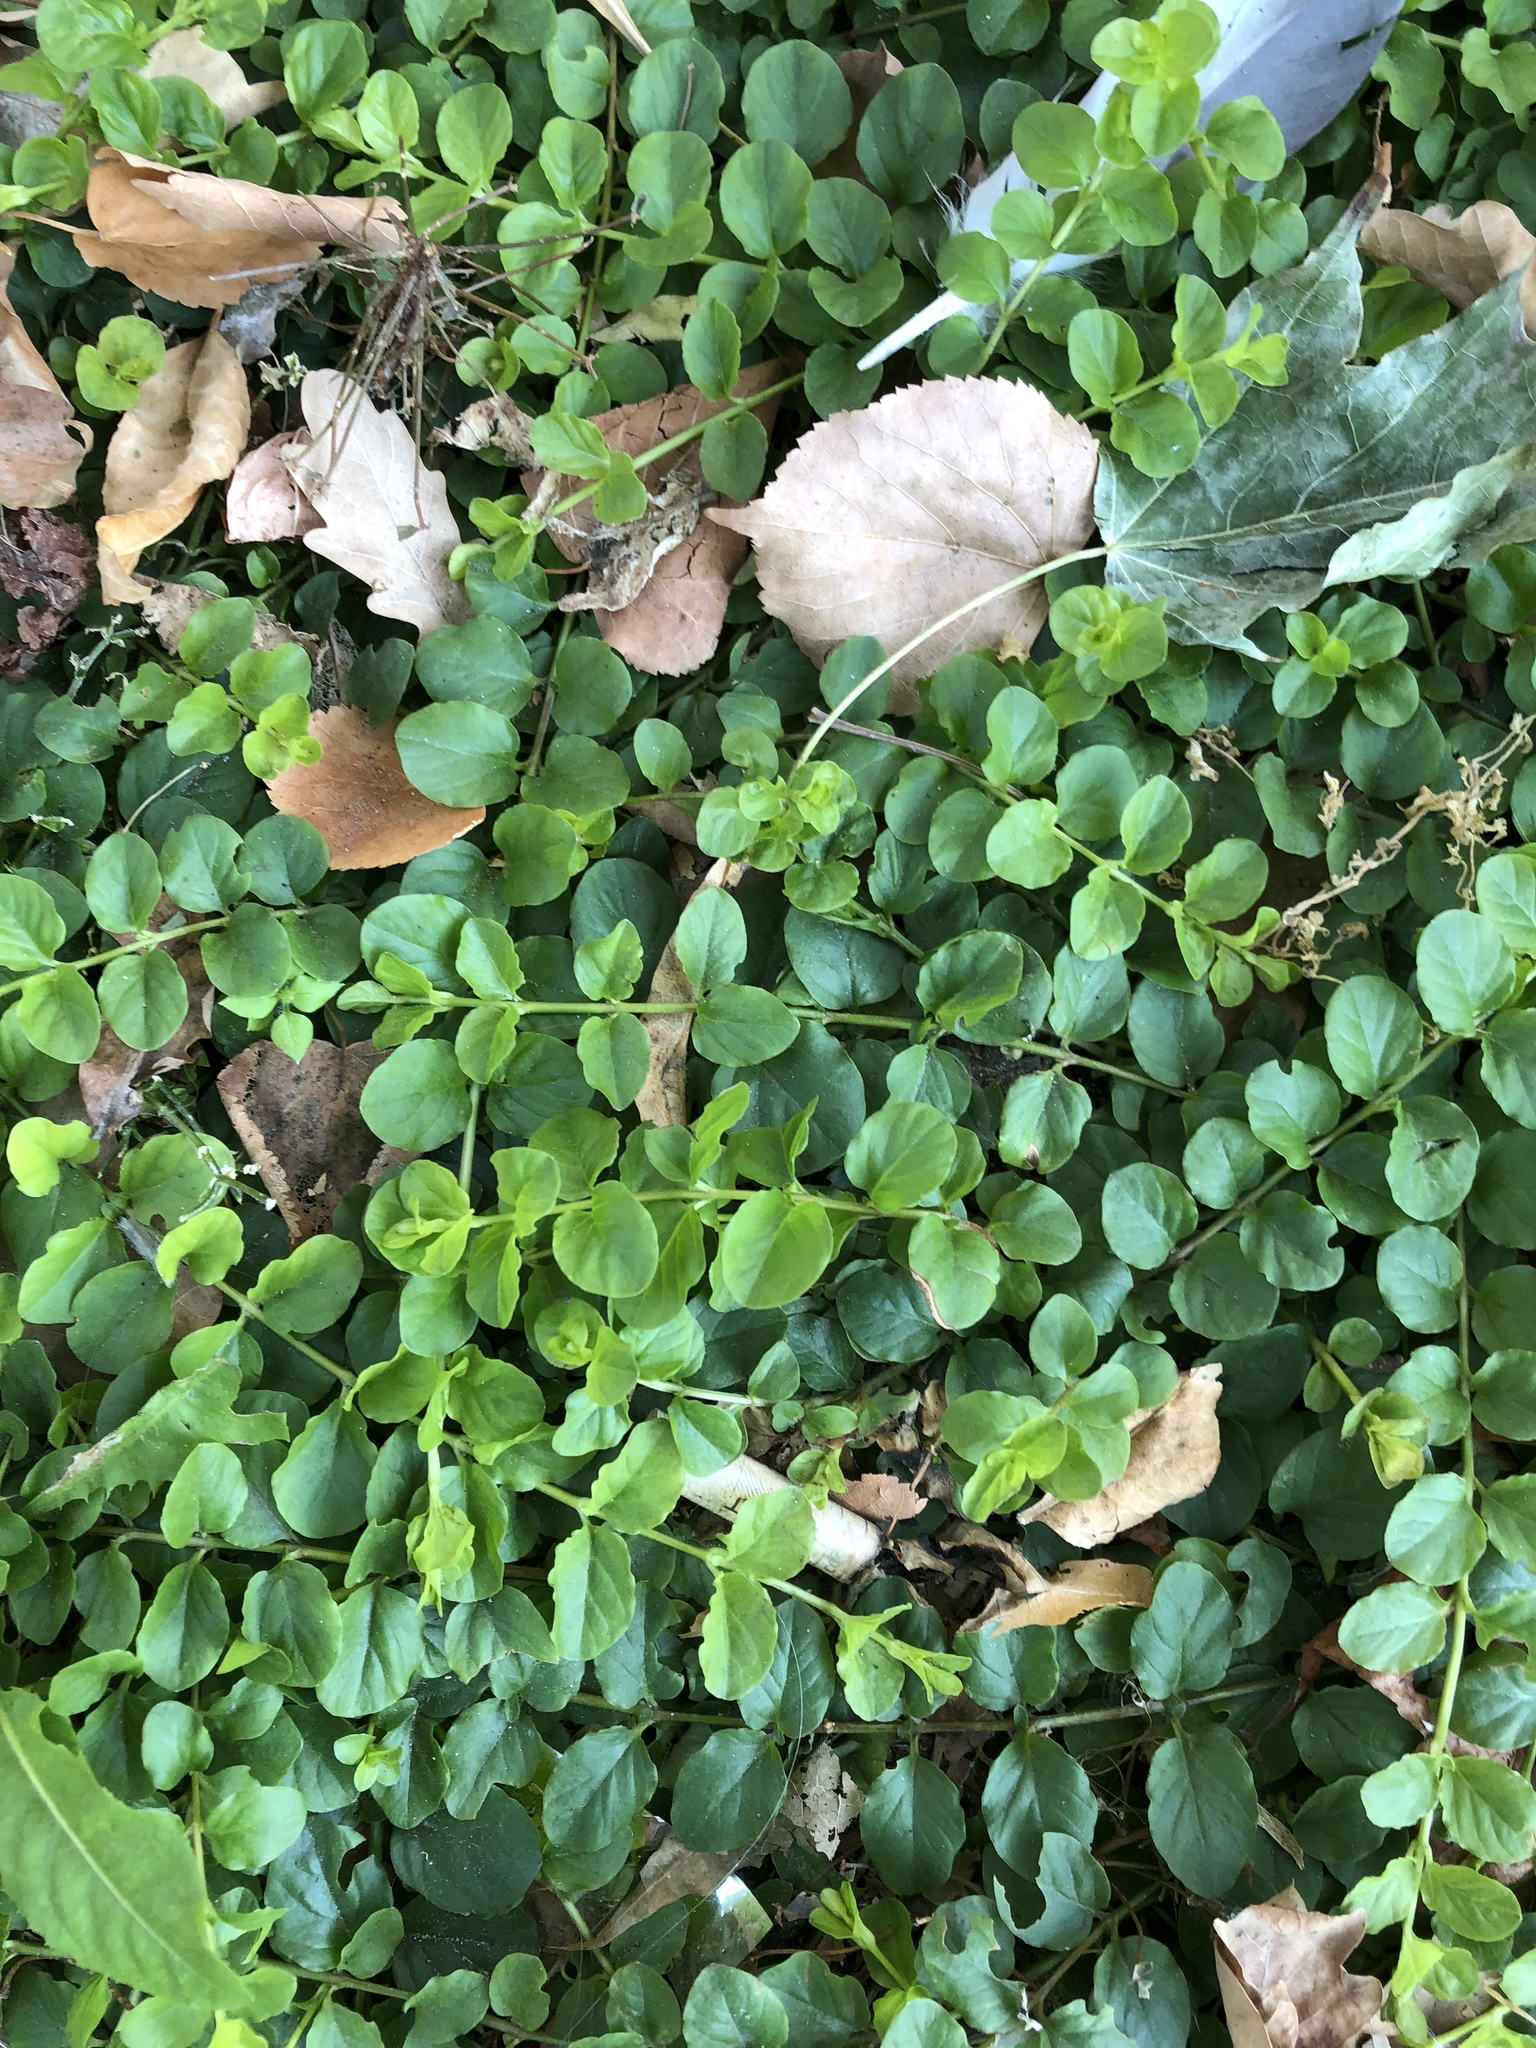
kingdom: Plantae
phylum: Tracheophyta
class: Magnoliopsida
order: Ericales
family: Primulaceae
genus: Lysimachia
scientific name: Lysimachia nummularia
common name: Moneywort
